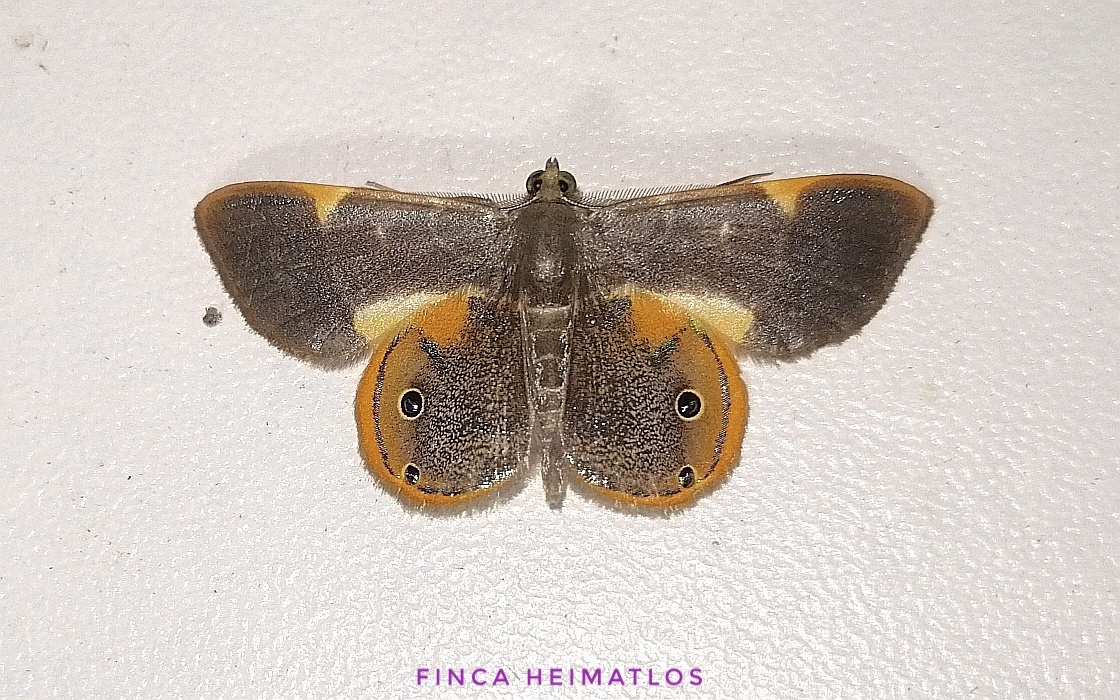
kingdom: Animalia
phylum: Arthropoda
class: Insecta
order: Lepidoptera
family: Geometridae
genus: Opisthoxia
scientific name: Opisthoxia haemon
